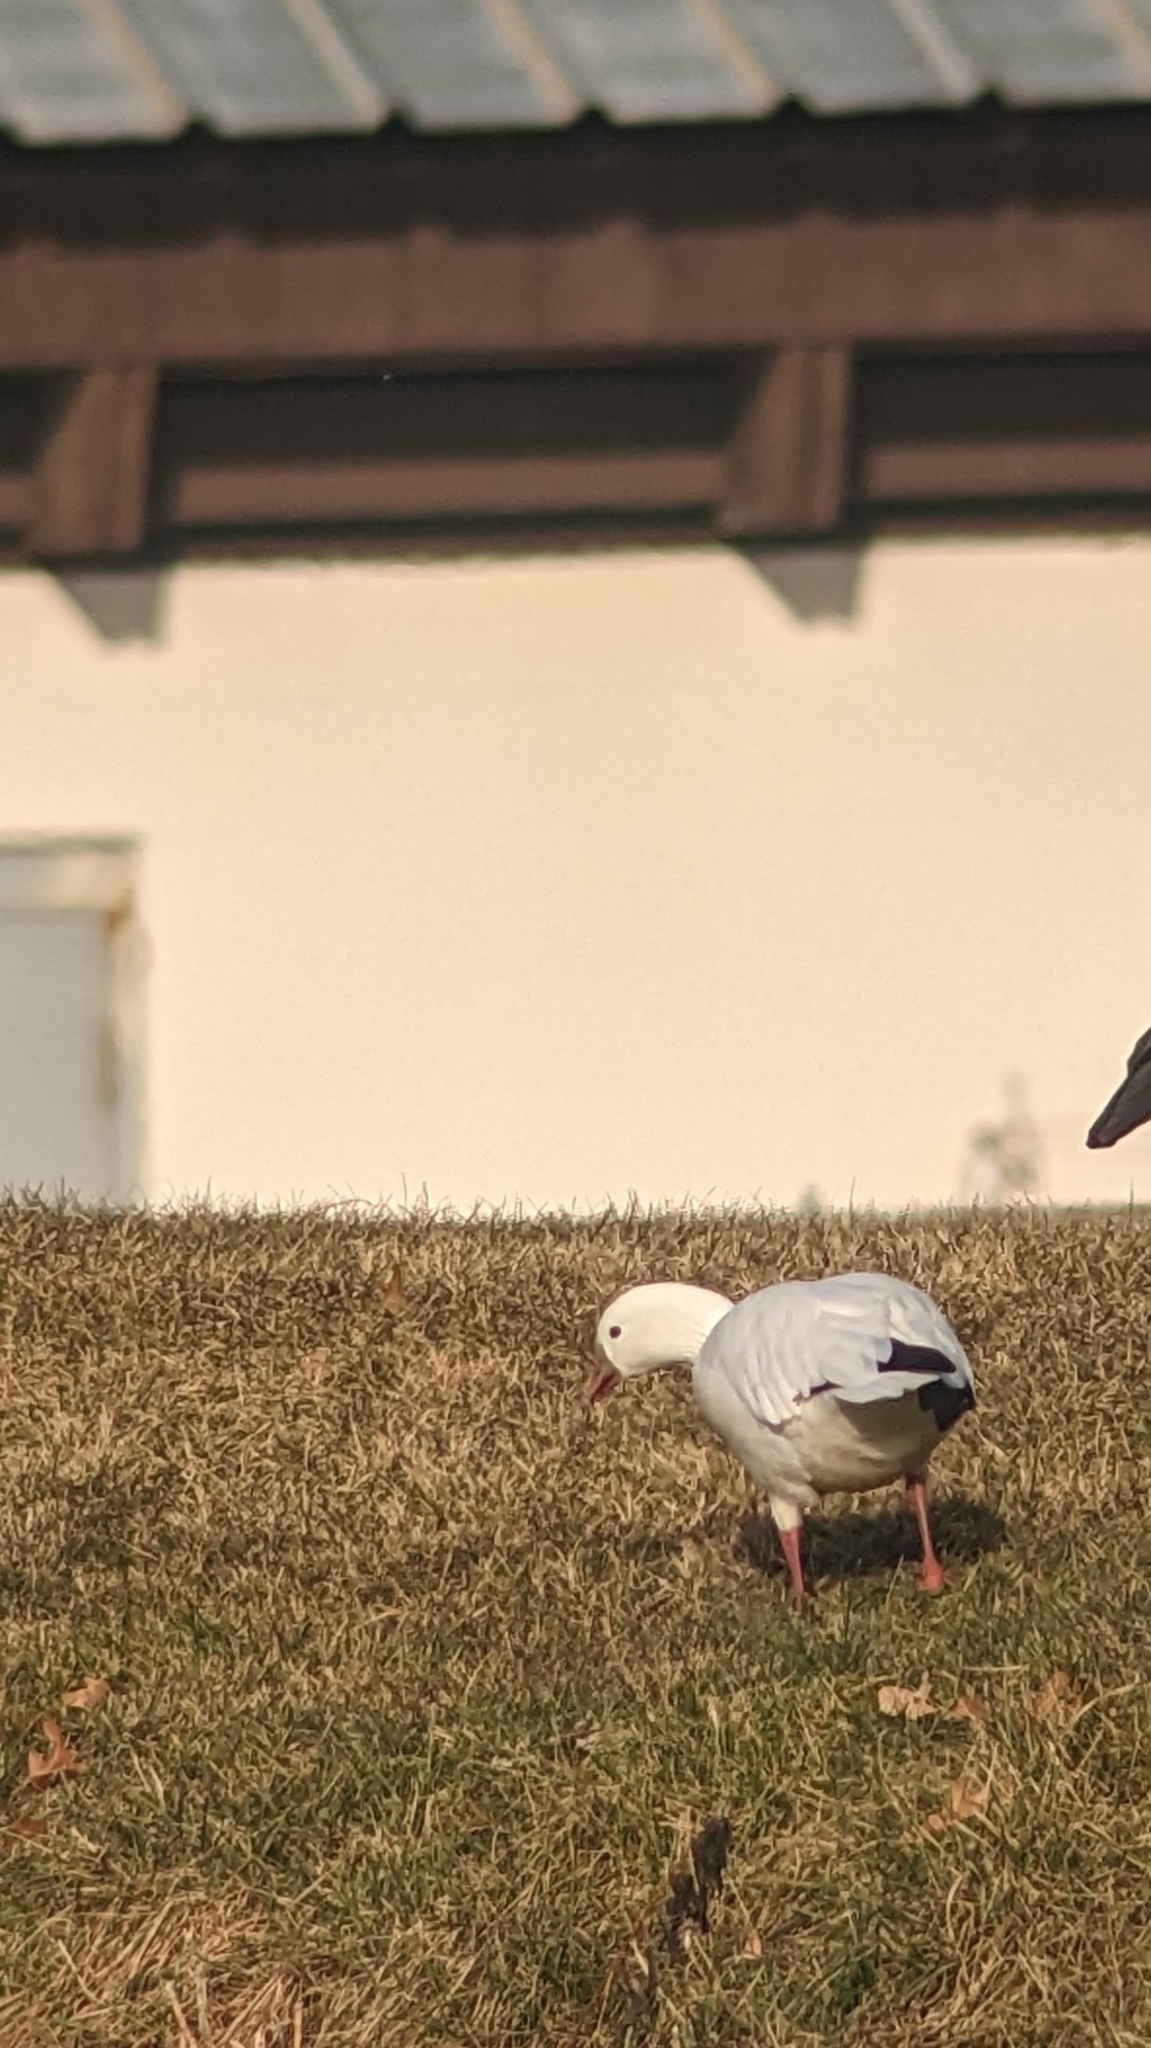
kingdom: Animalia
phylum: Chordata
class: Aves
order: Anseriformes
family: Anatidae
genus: Anser
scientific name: Anser rossii
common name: Ross's goose
